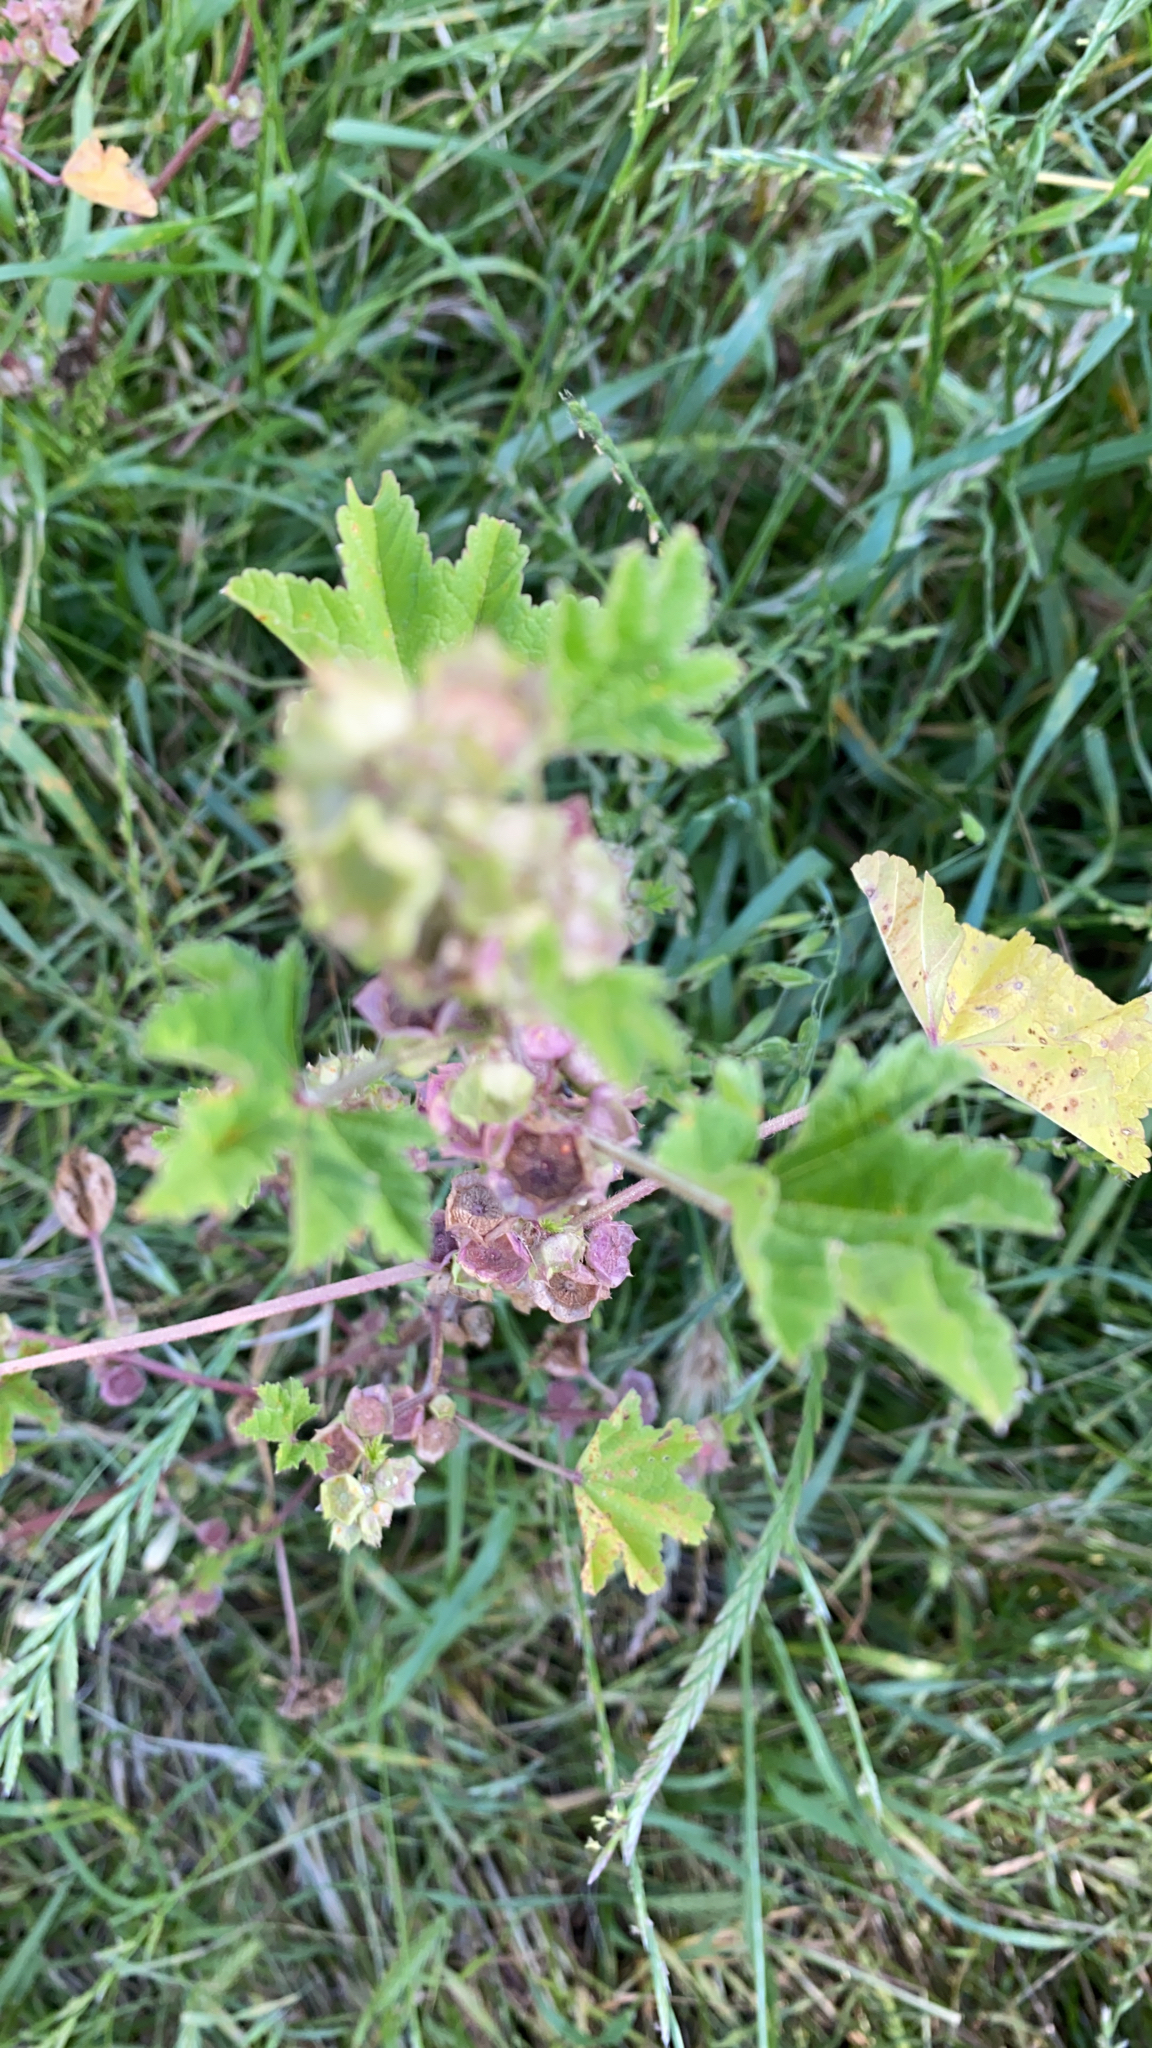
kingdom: Plantae
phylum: Tracheophyta
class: Magnoliopsida
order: Malvales
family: Malvaceae
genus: Malva
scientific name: Malva parviflora
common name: Least mallow
